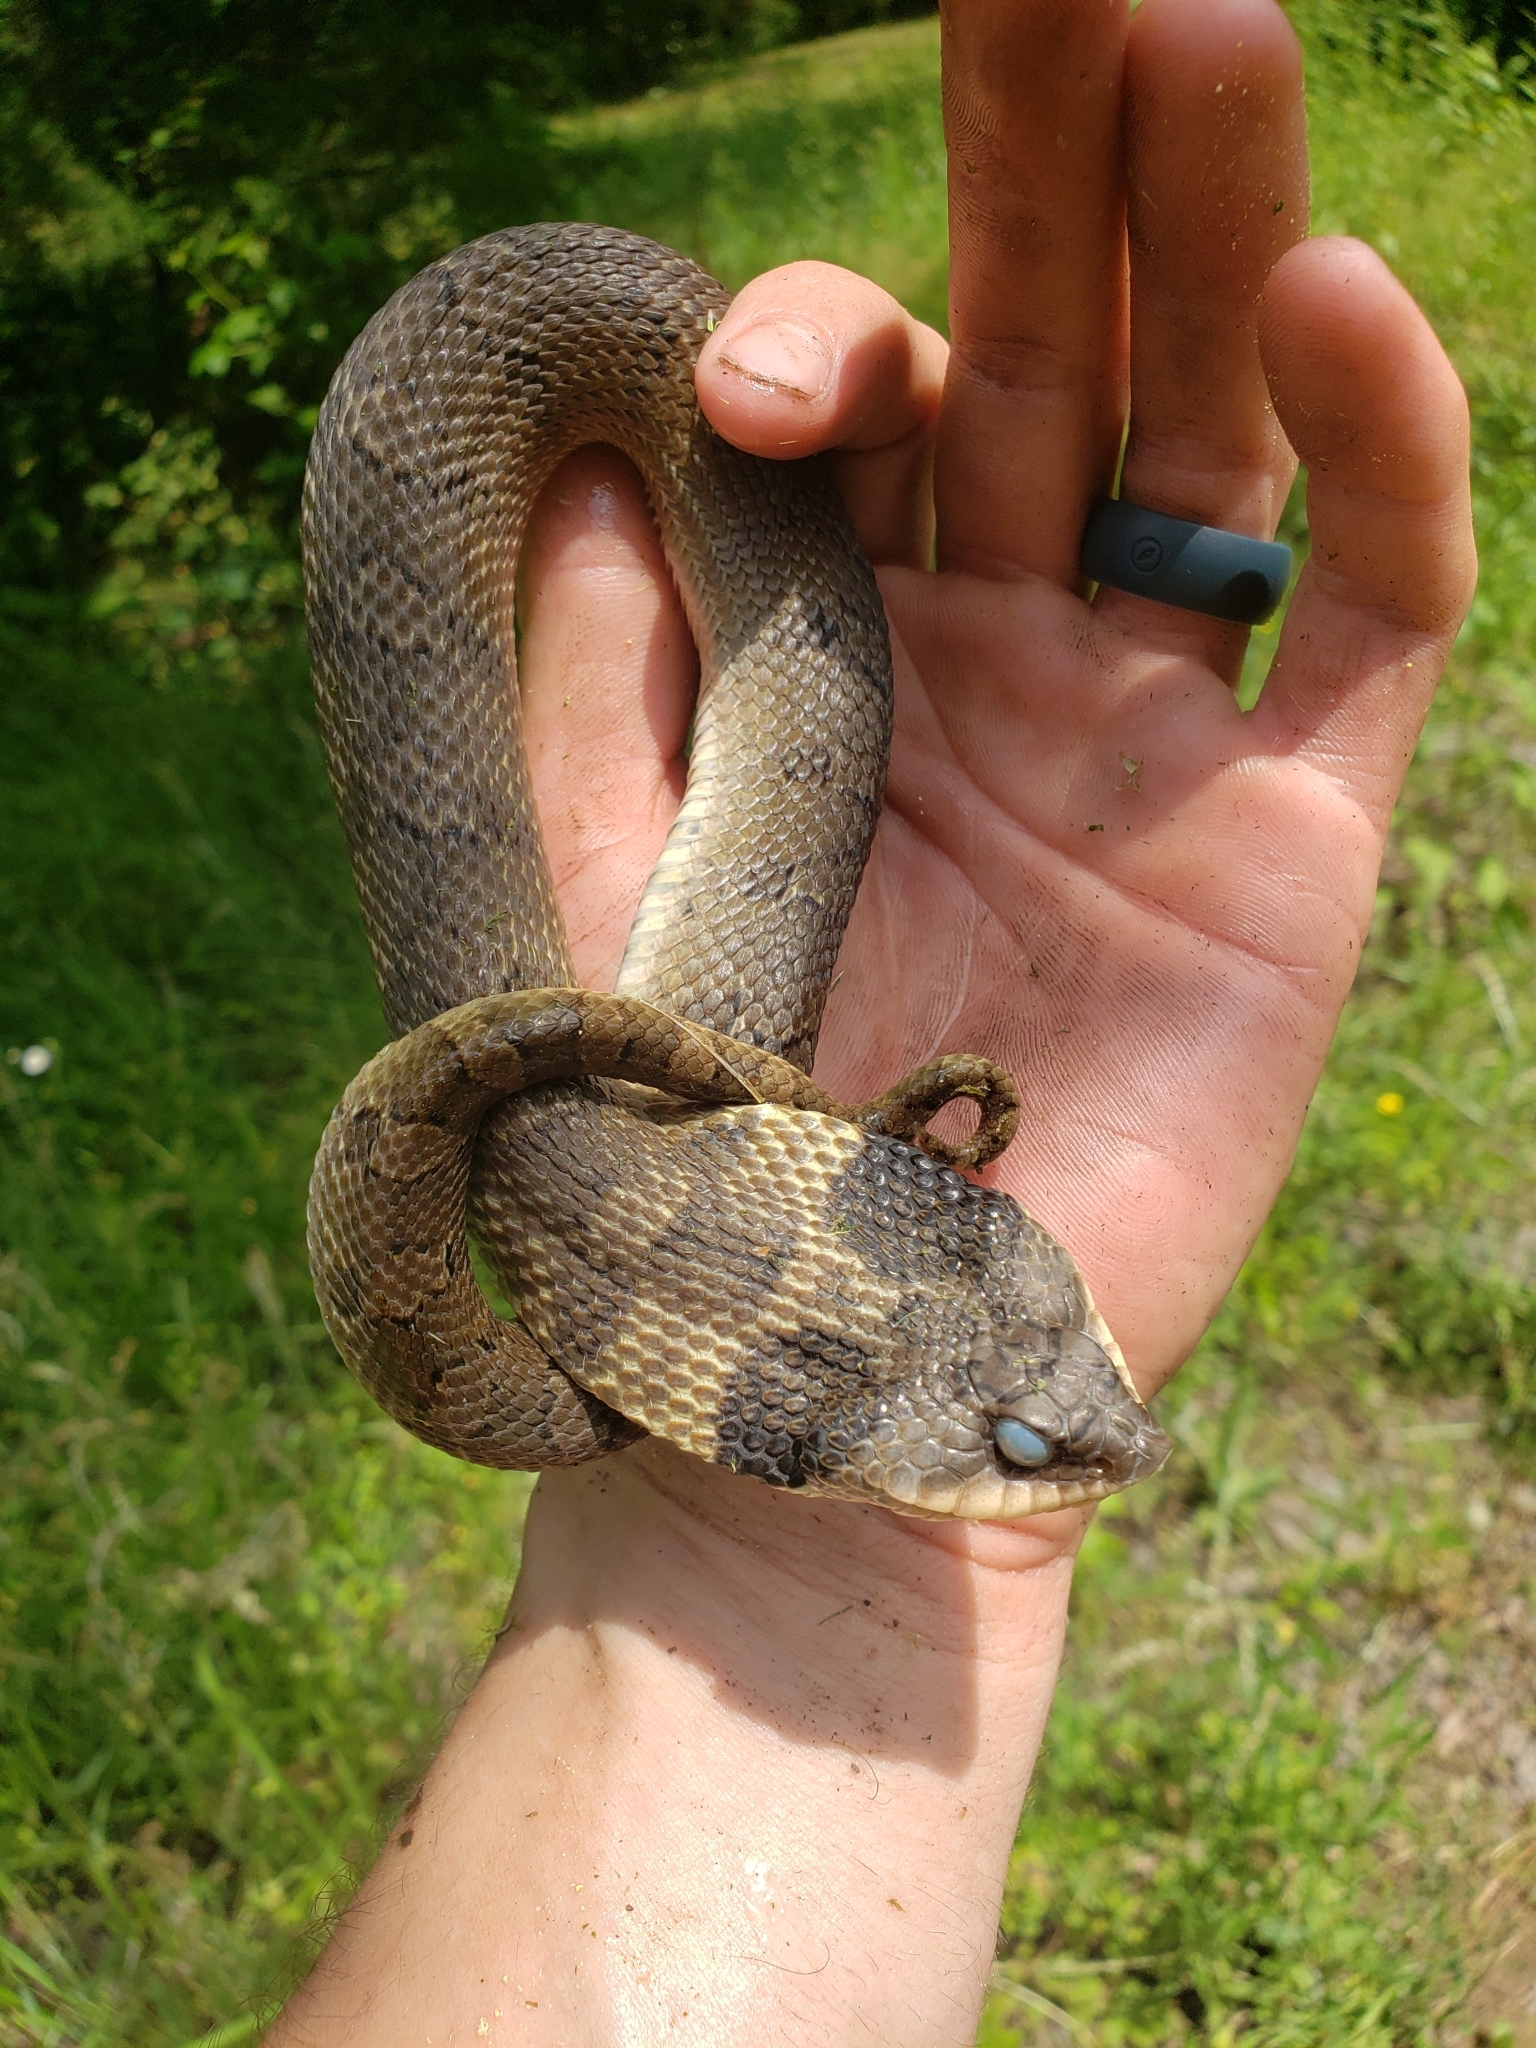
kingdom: Animalia
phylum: Chordata
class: Squamata
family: Colubridae
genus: Heterodon
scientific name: Heterodon platirhinos
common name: Eastern hognose snake
